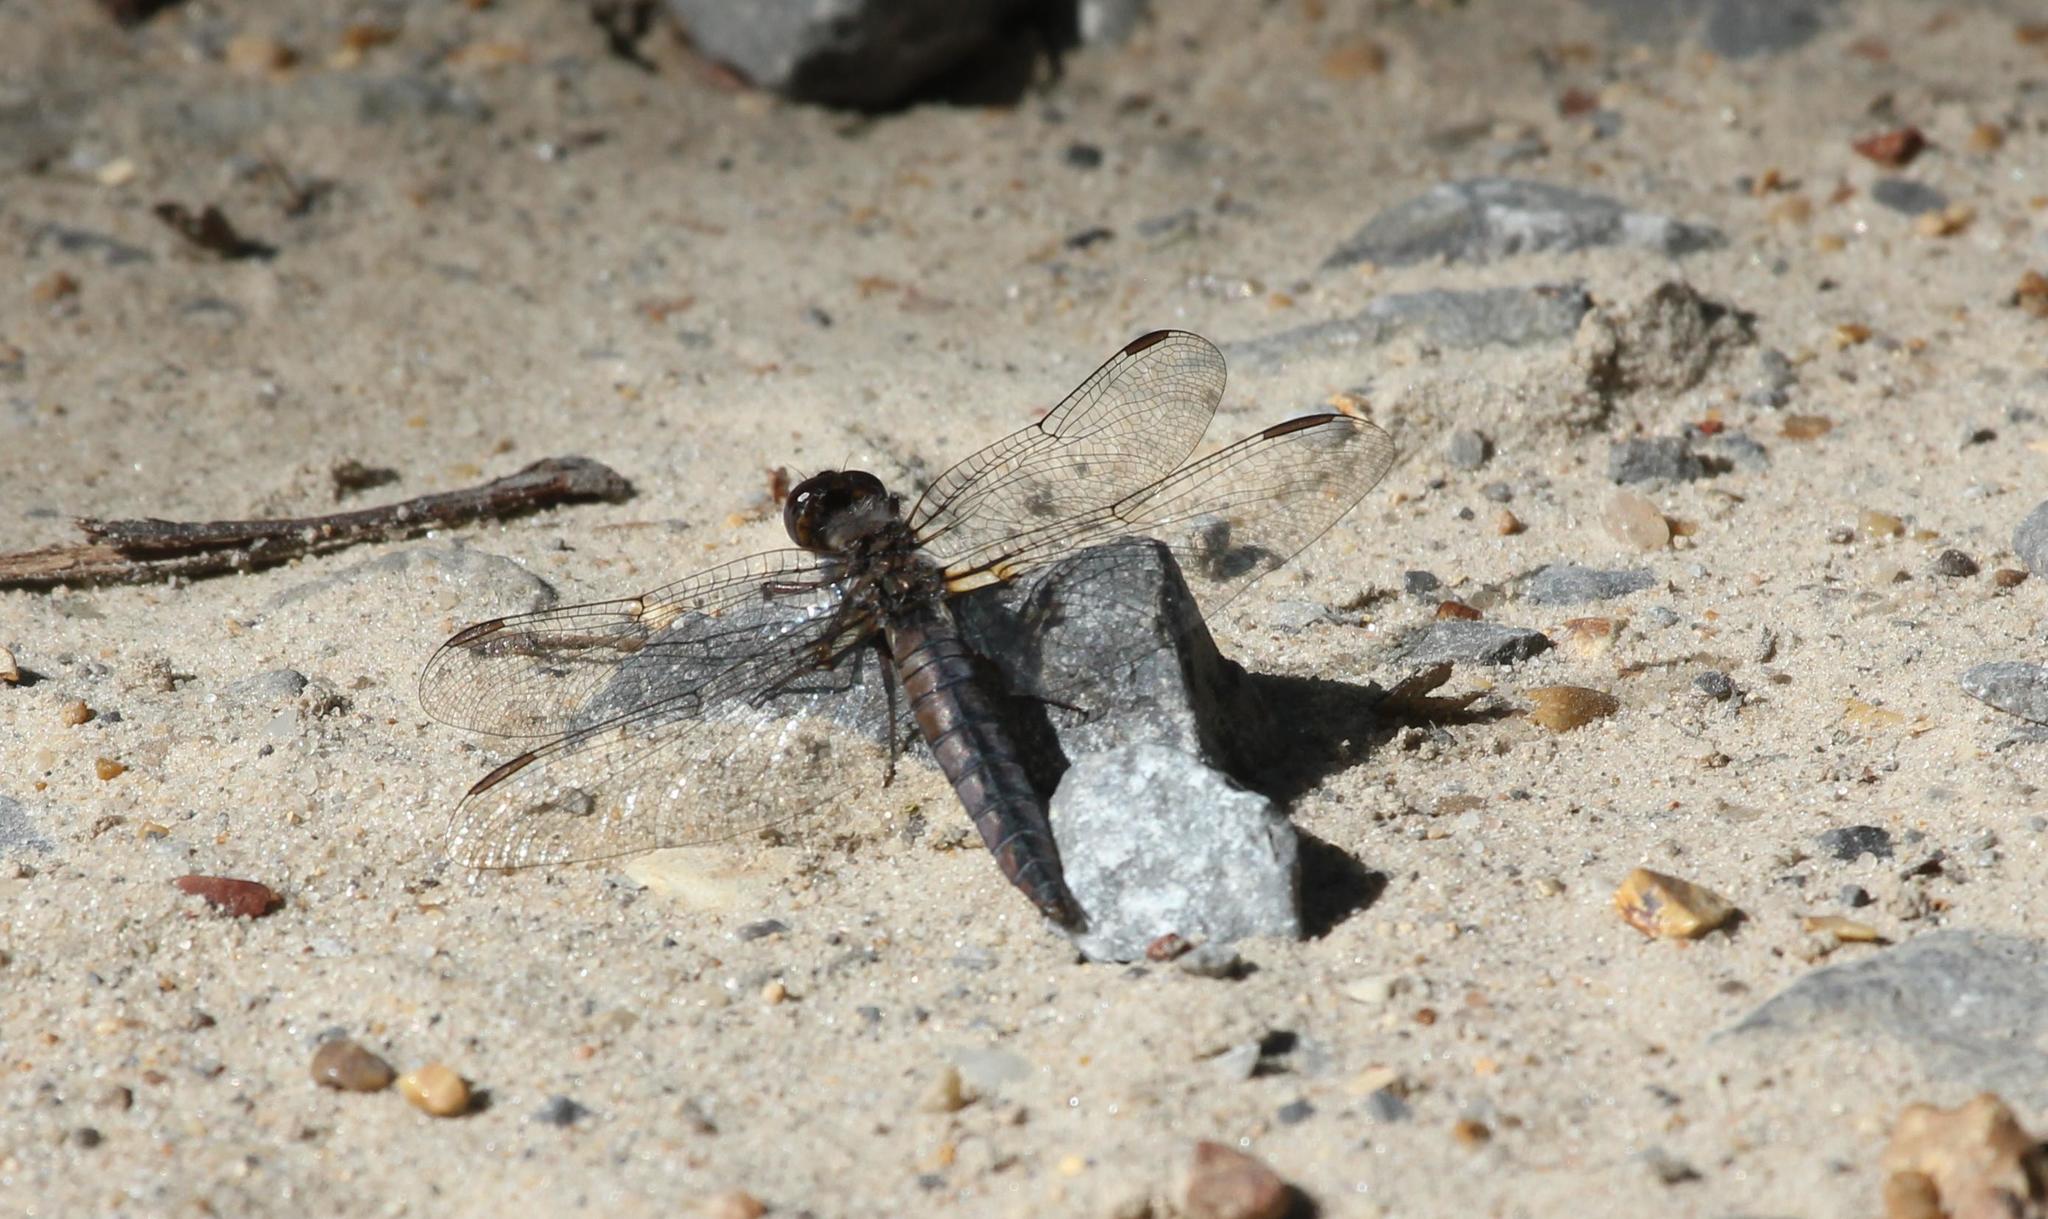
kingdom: Animalia
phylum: Arthropoda
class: Insecta
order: Odonata
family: Libellulidae
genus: Ladona
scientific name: Ladona deplanata
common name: Blue corporal
